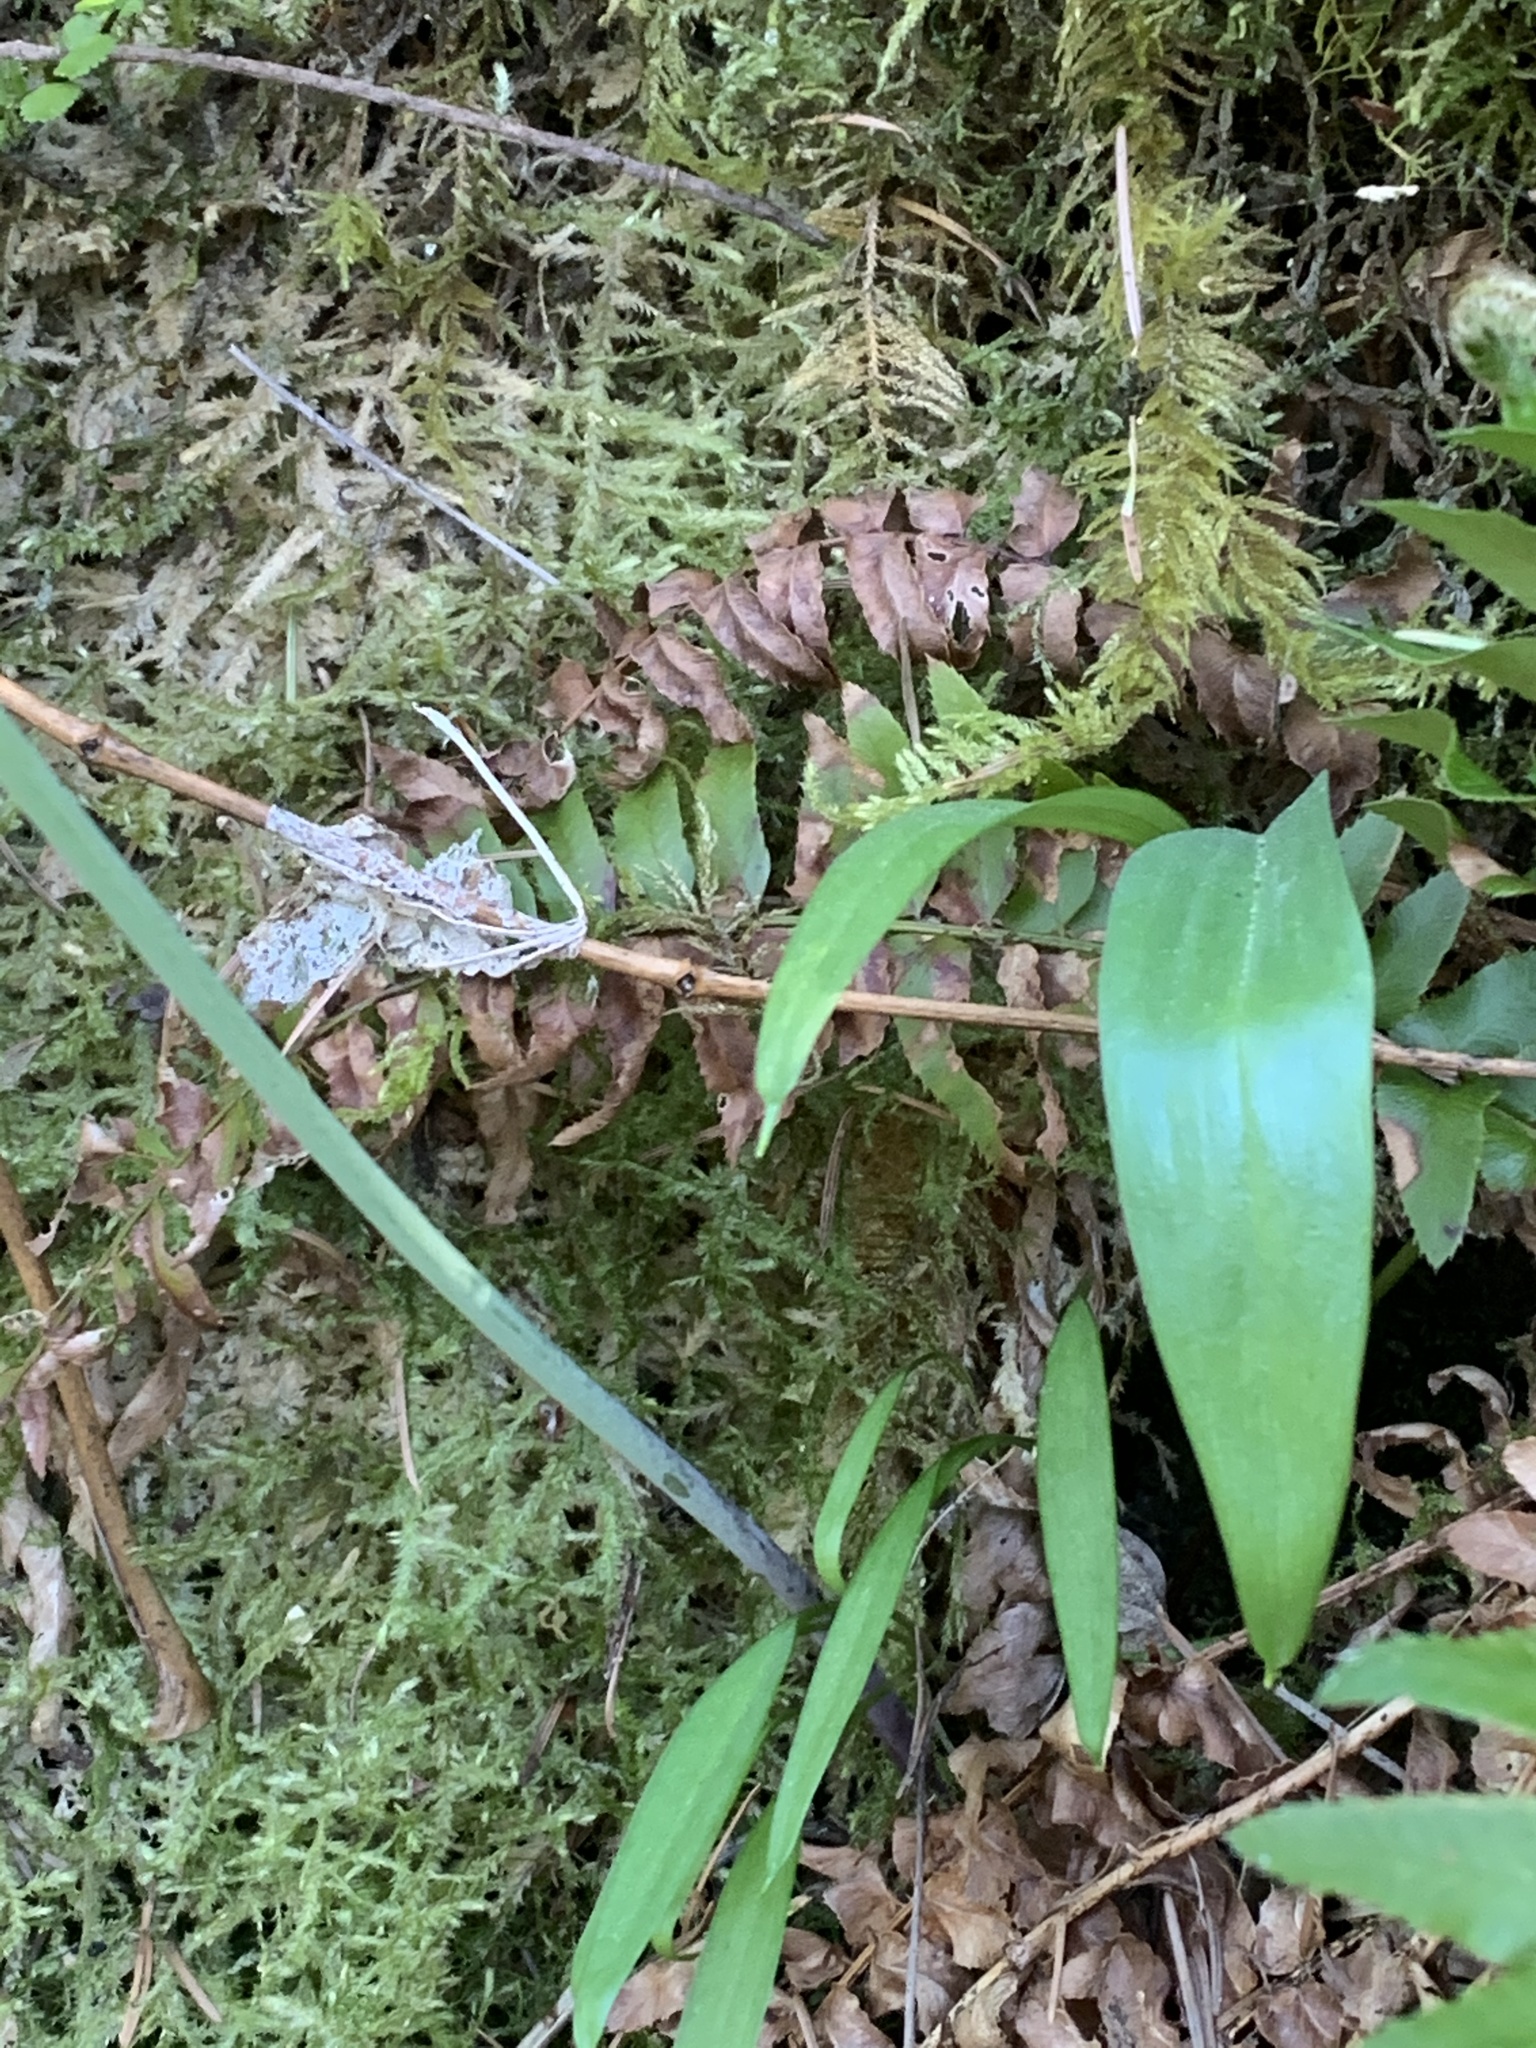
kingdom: Plantae
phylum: Tracheophyta
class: Liliopsida
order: Liliales
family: Liliaceae
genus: Fritillaria
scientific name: Fritillaria affinis
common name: Ojai fritillary
